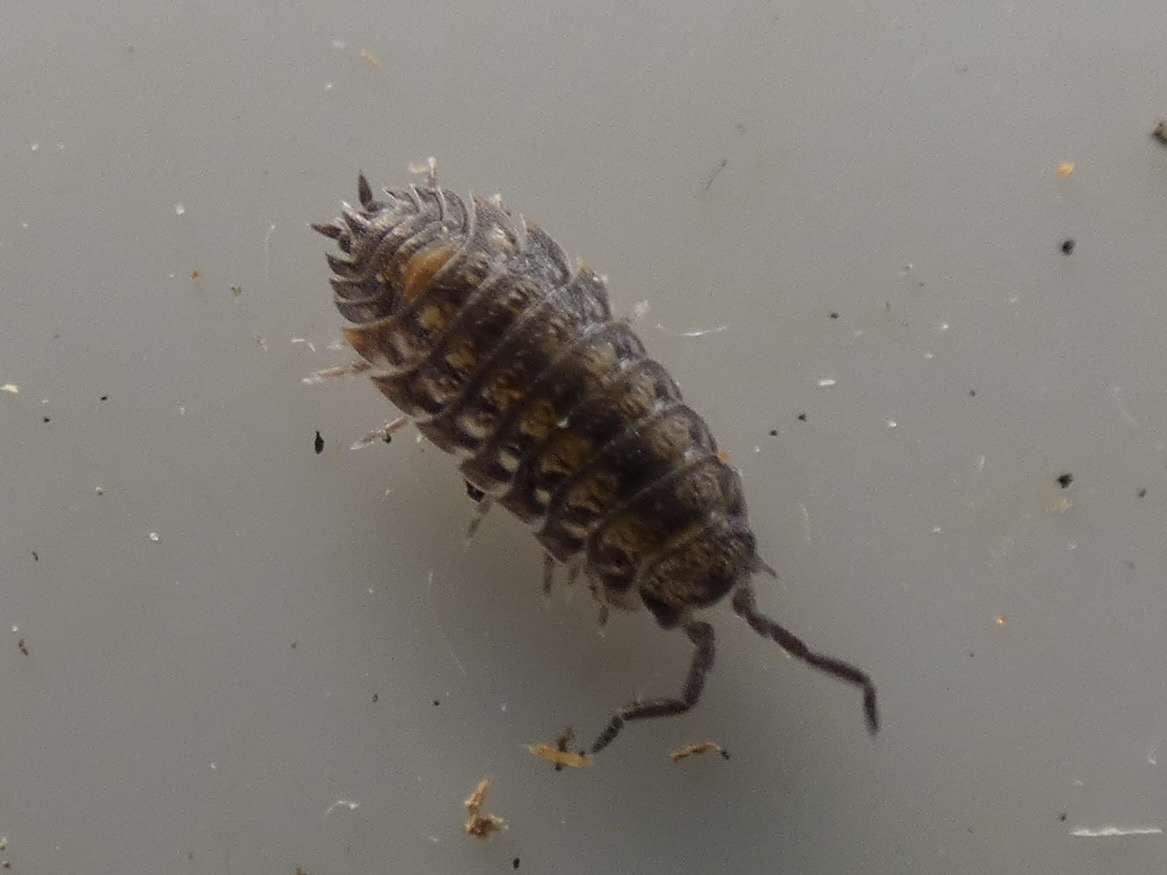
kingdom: Animalia
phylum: Arthropoda
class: Malacostraca
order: Isopoda
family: Oniscidae
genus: Oniscus
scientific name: Oniscus asellus
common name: Common shiny woodlouse
